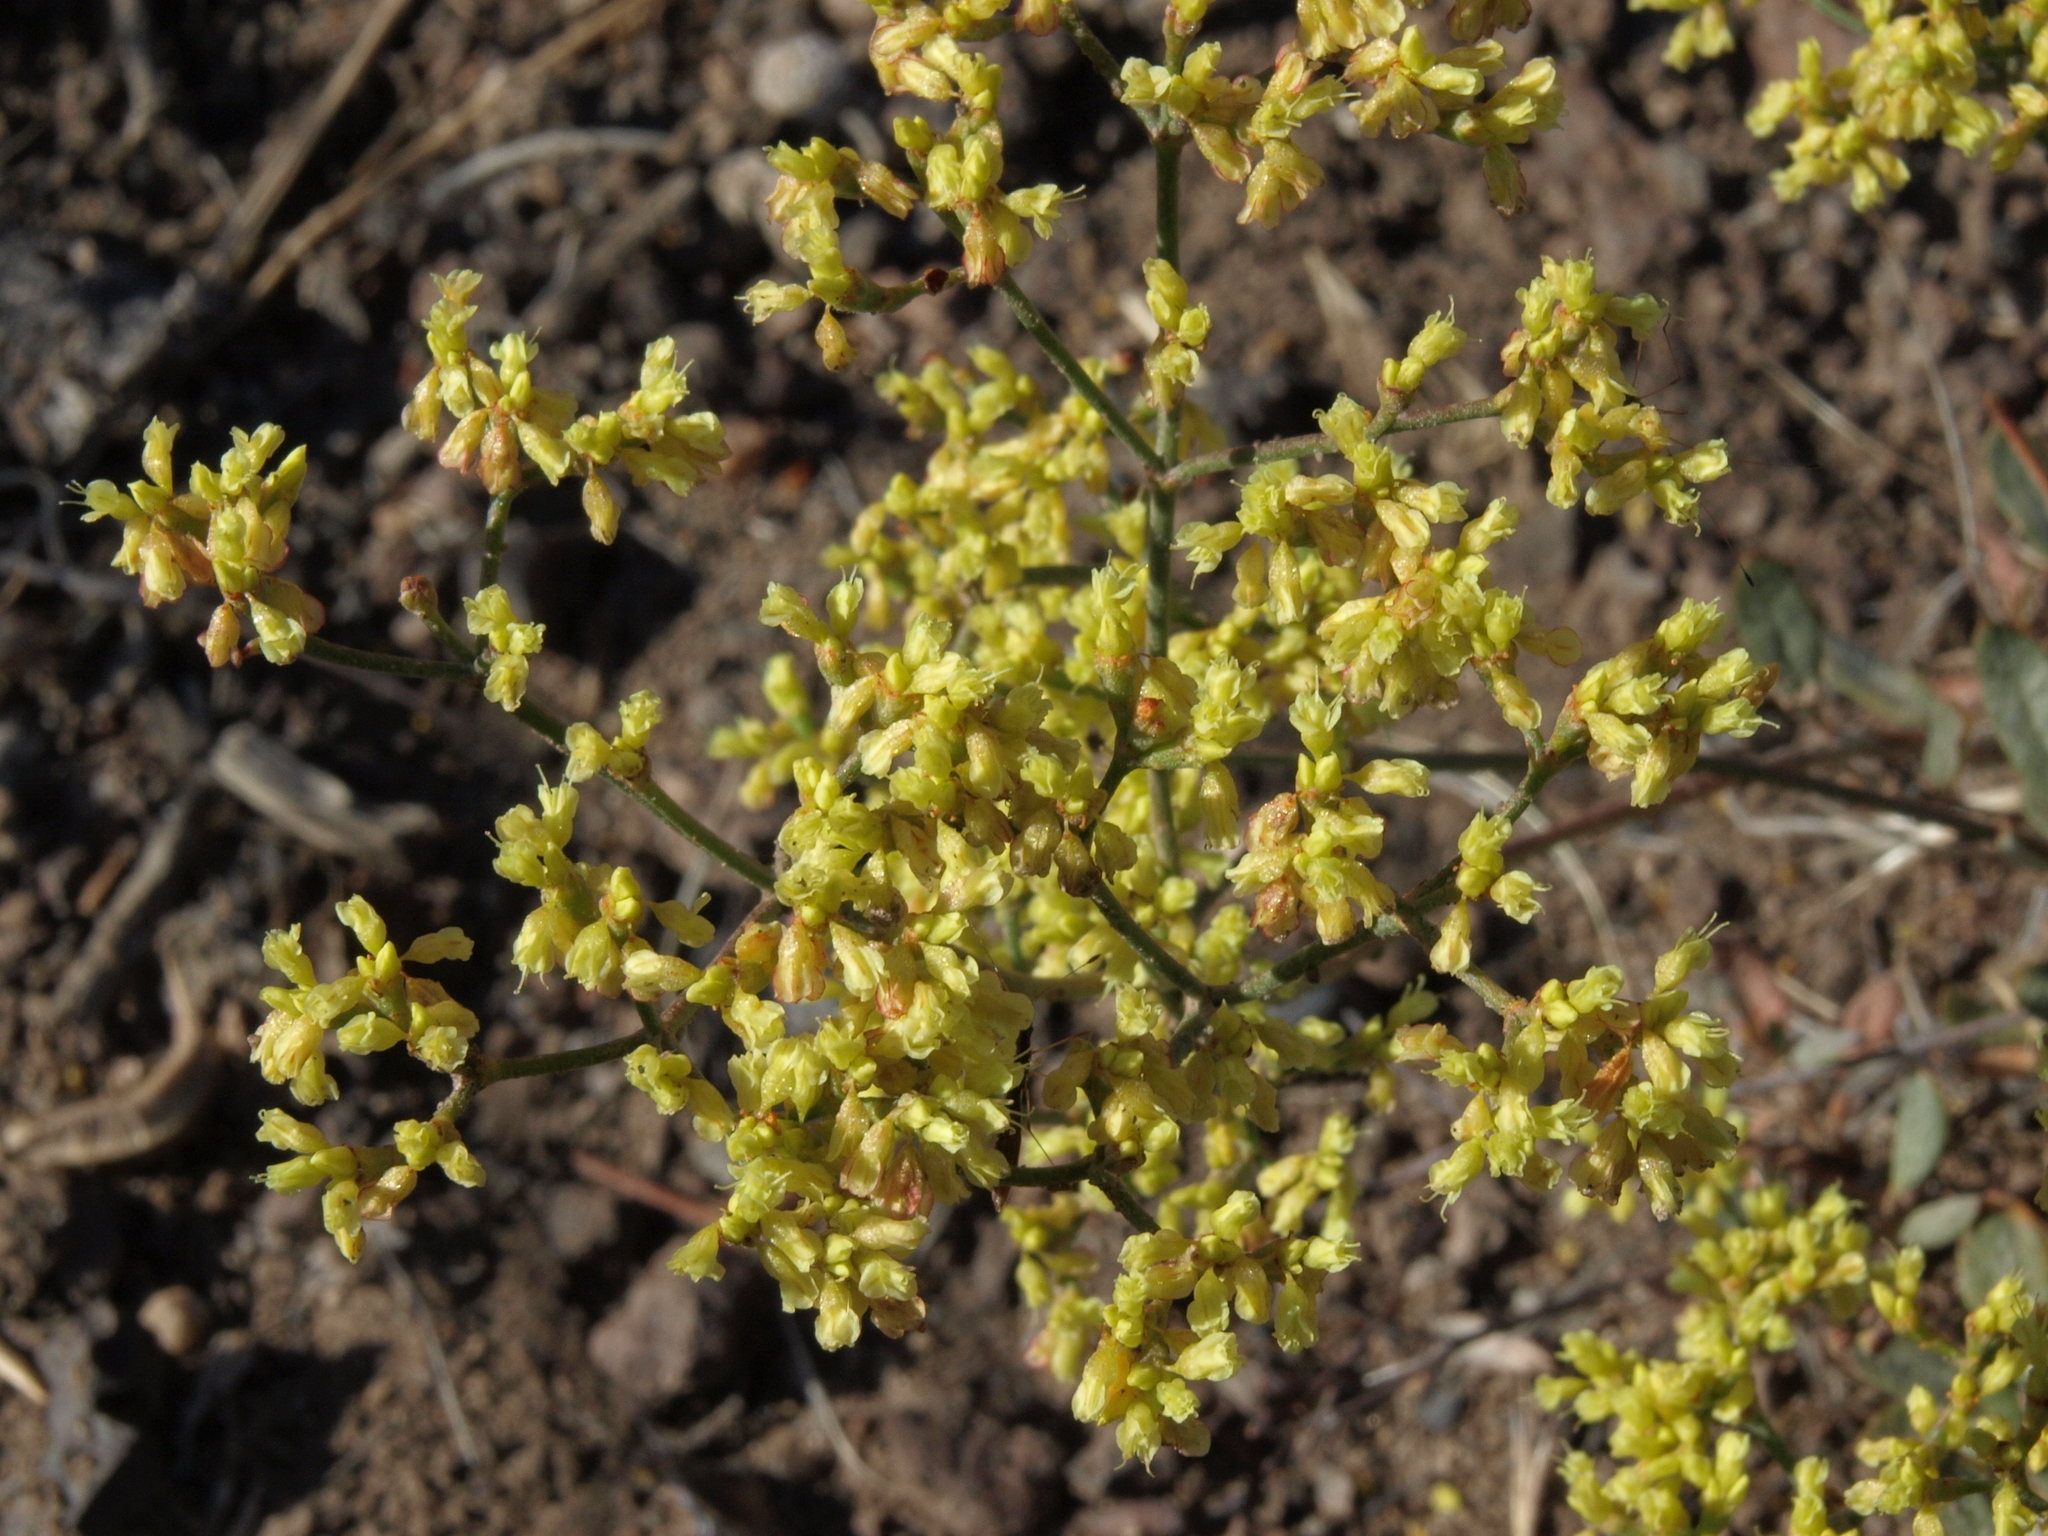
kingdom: Plantae
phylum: Tracheophyta
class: Magnoliopsida
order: Caryophyllales
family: Polygonaceae
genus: Eriogonum
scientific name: Eriogonum microtheca
